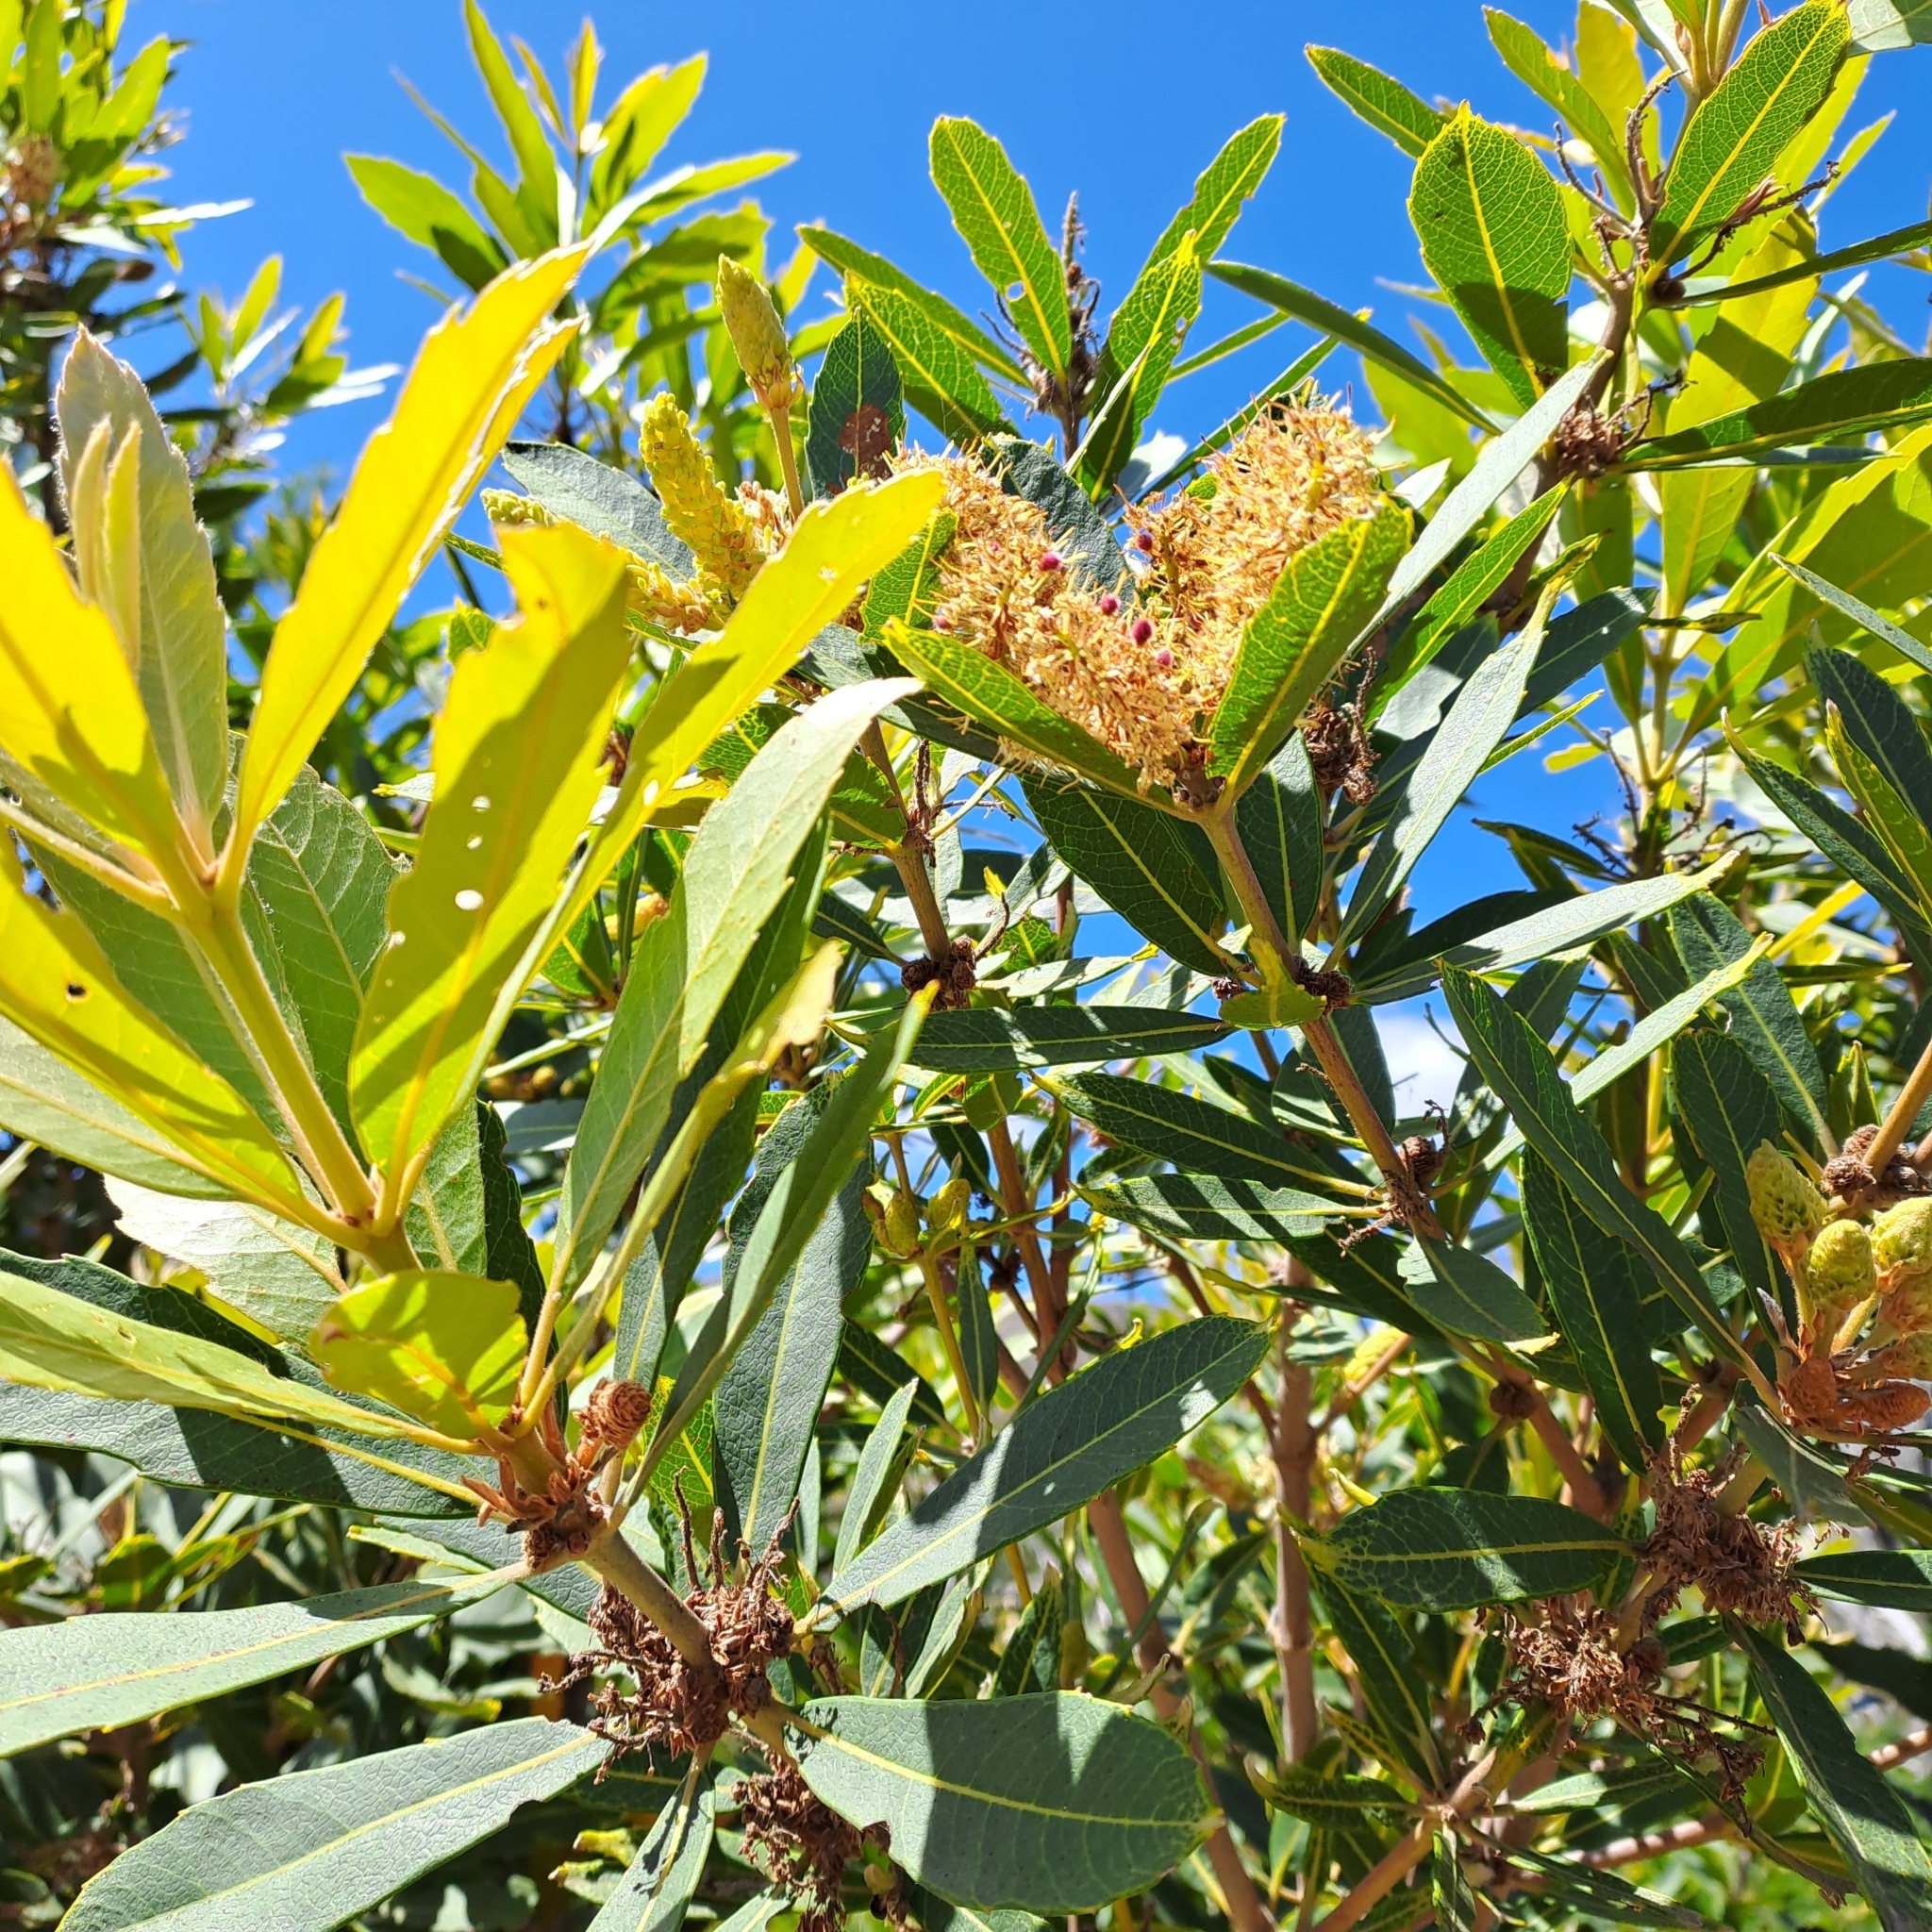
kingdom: Plantae
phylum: Tracheophyta
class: Magnoliopsida
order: Proteales
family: Proteaceae
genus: Brabejum
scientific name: Brabejum stellatifolium
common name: Wild almond
